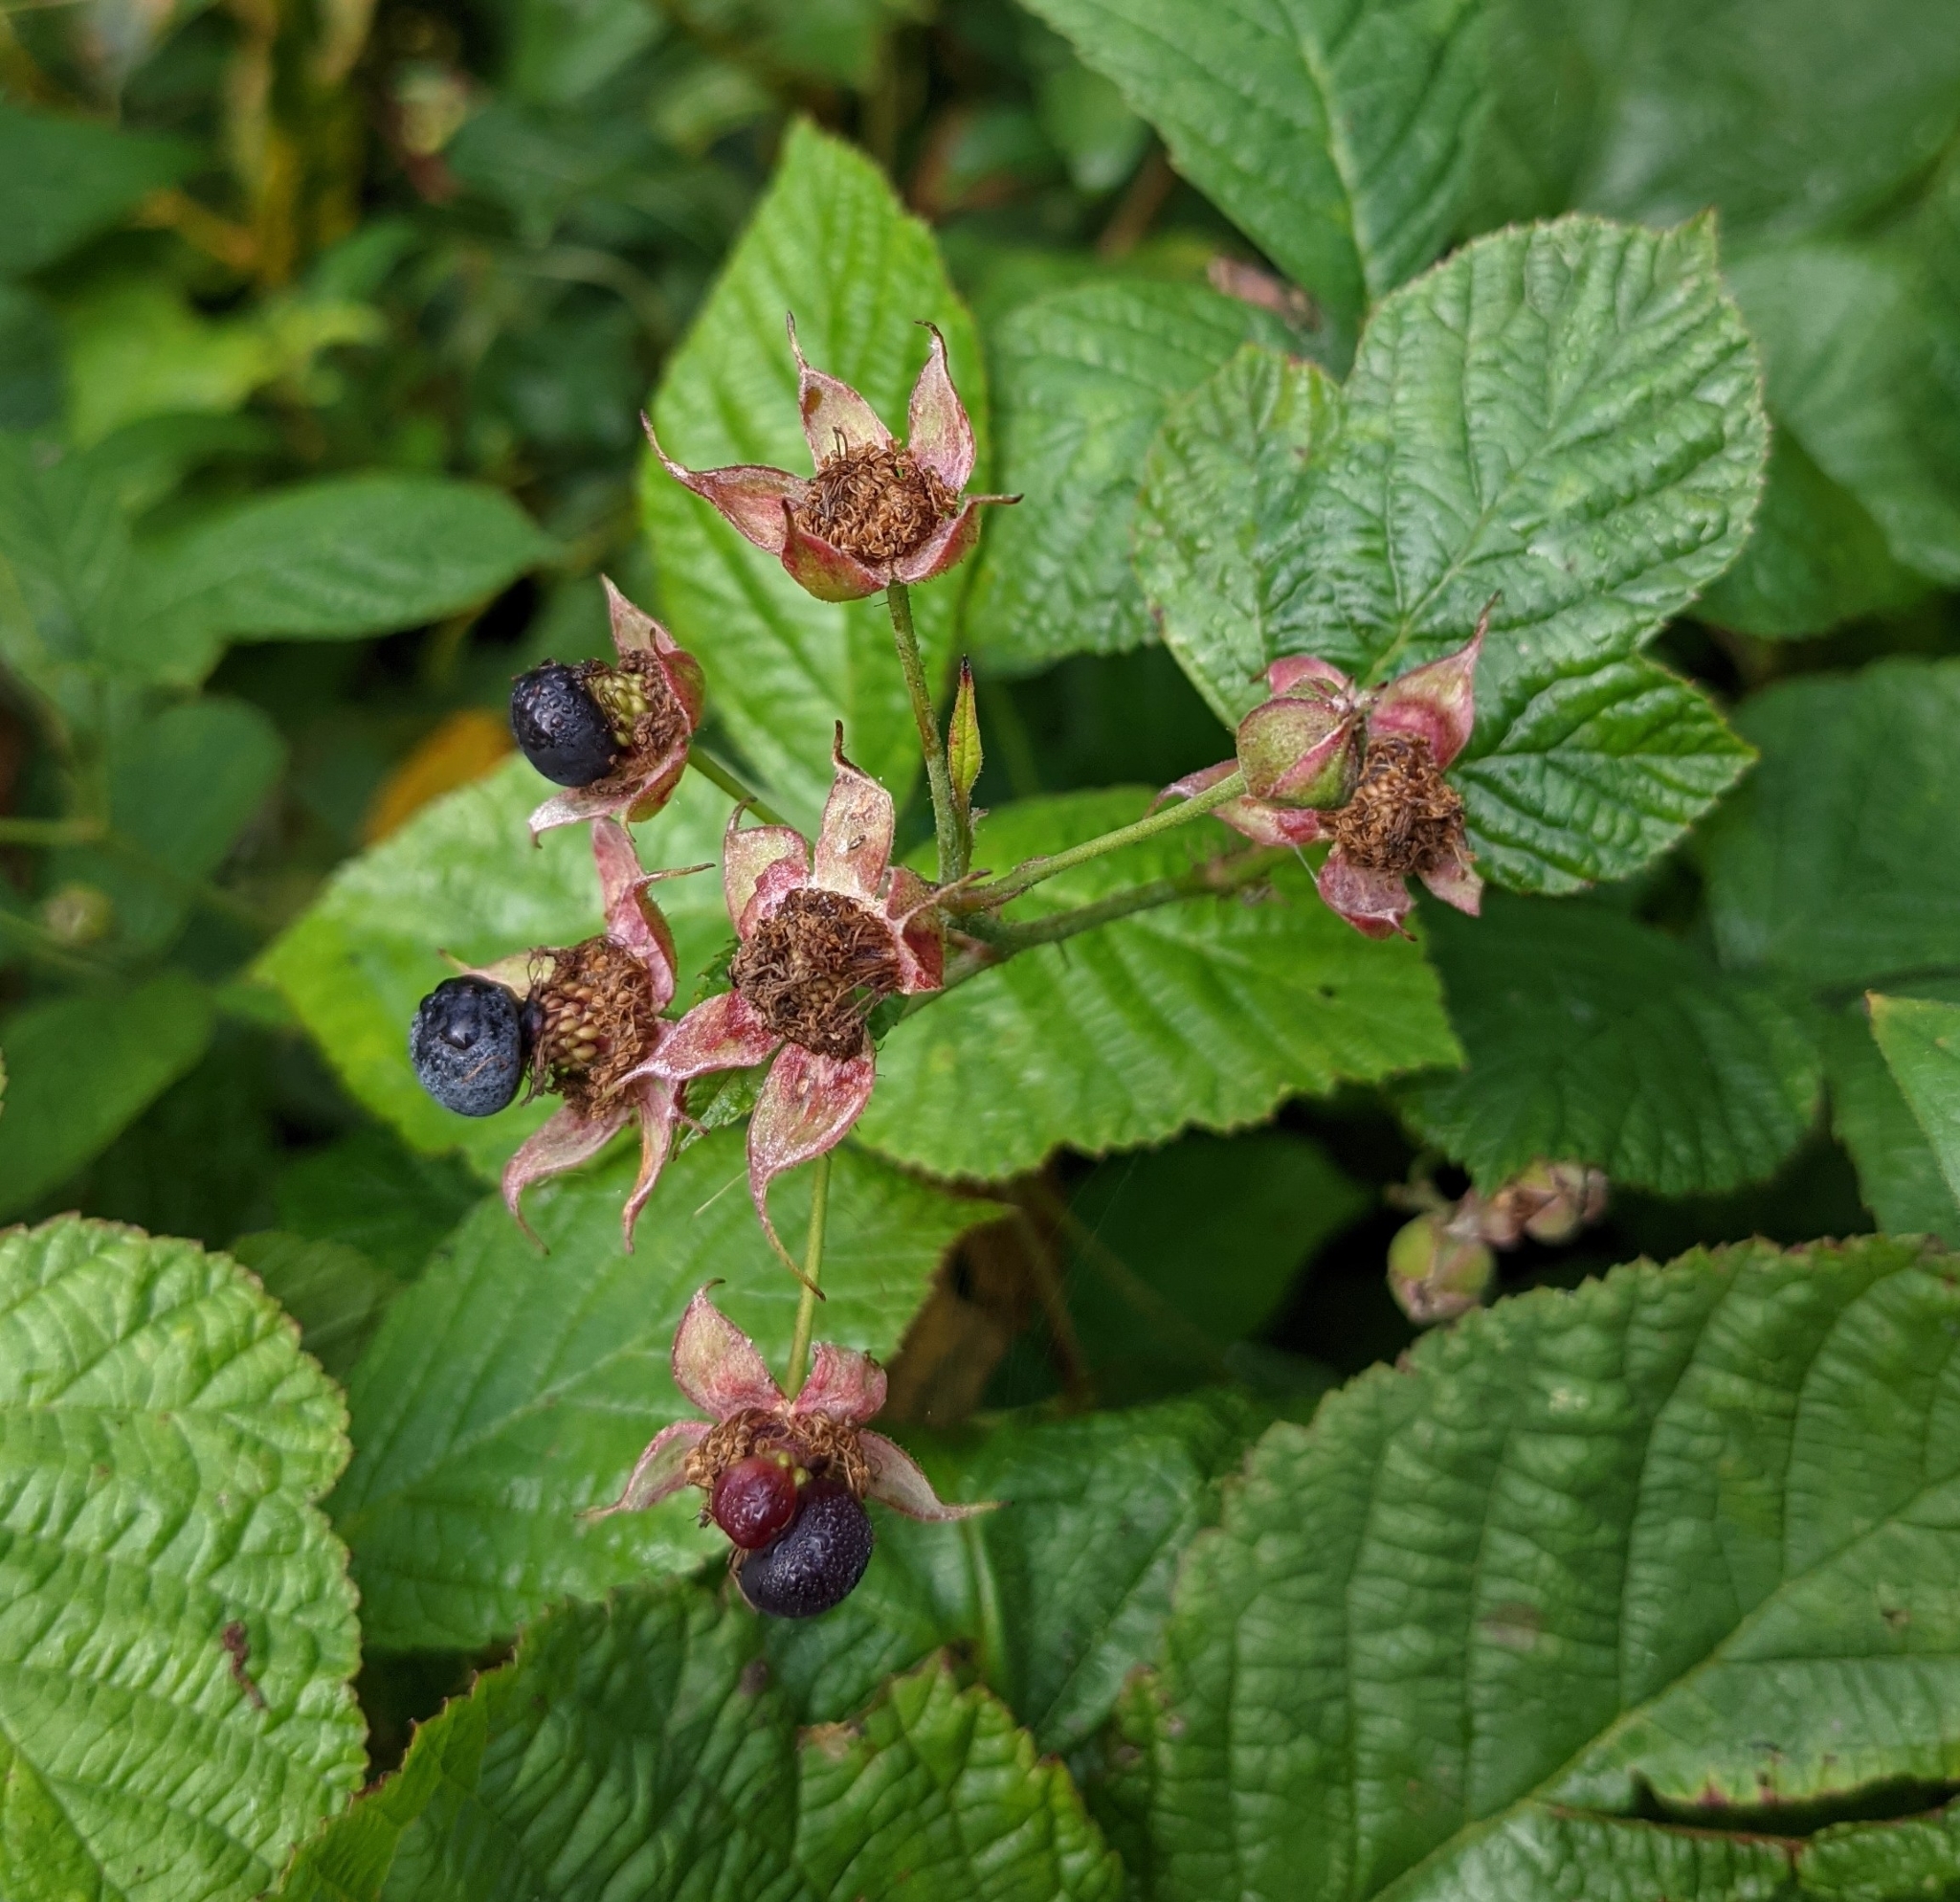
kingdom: Plantae
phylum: Tracheophyta
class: Magnoliopsida
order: Rosales
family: Rosaceae
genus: Rubus
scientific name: Rubus caesius
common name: Dewberry
